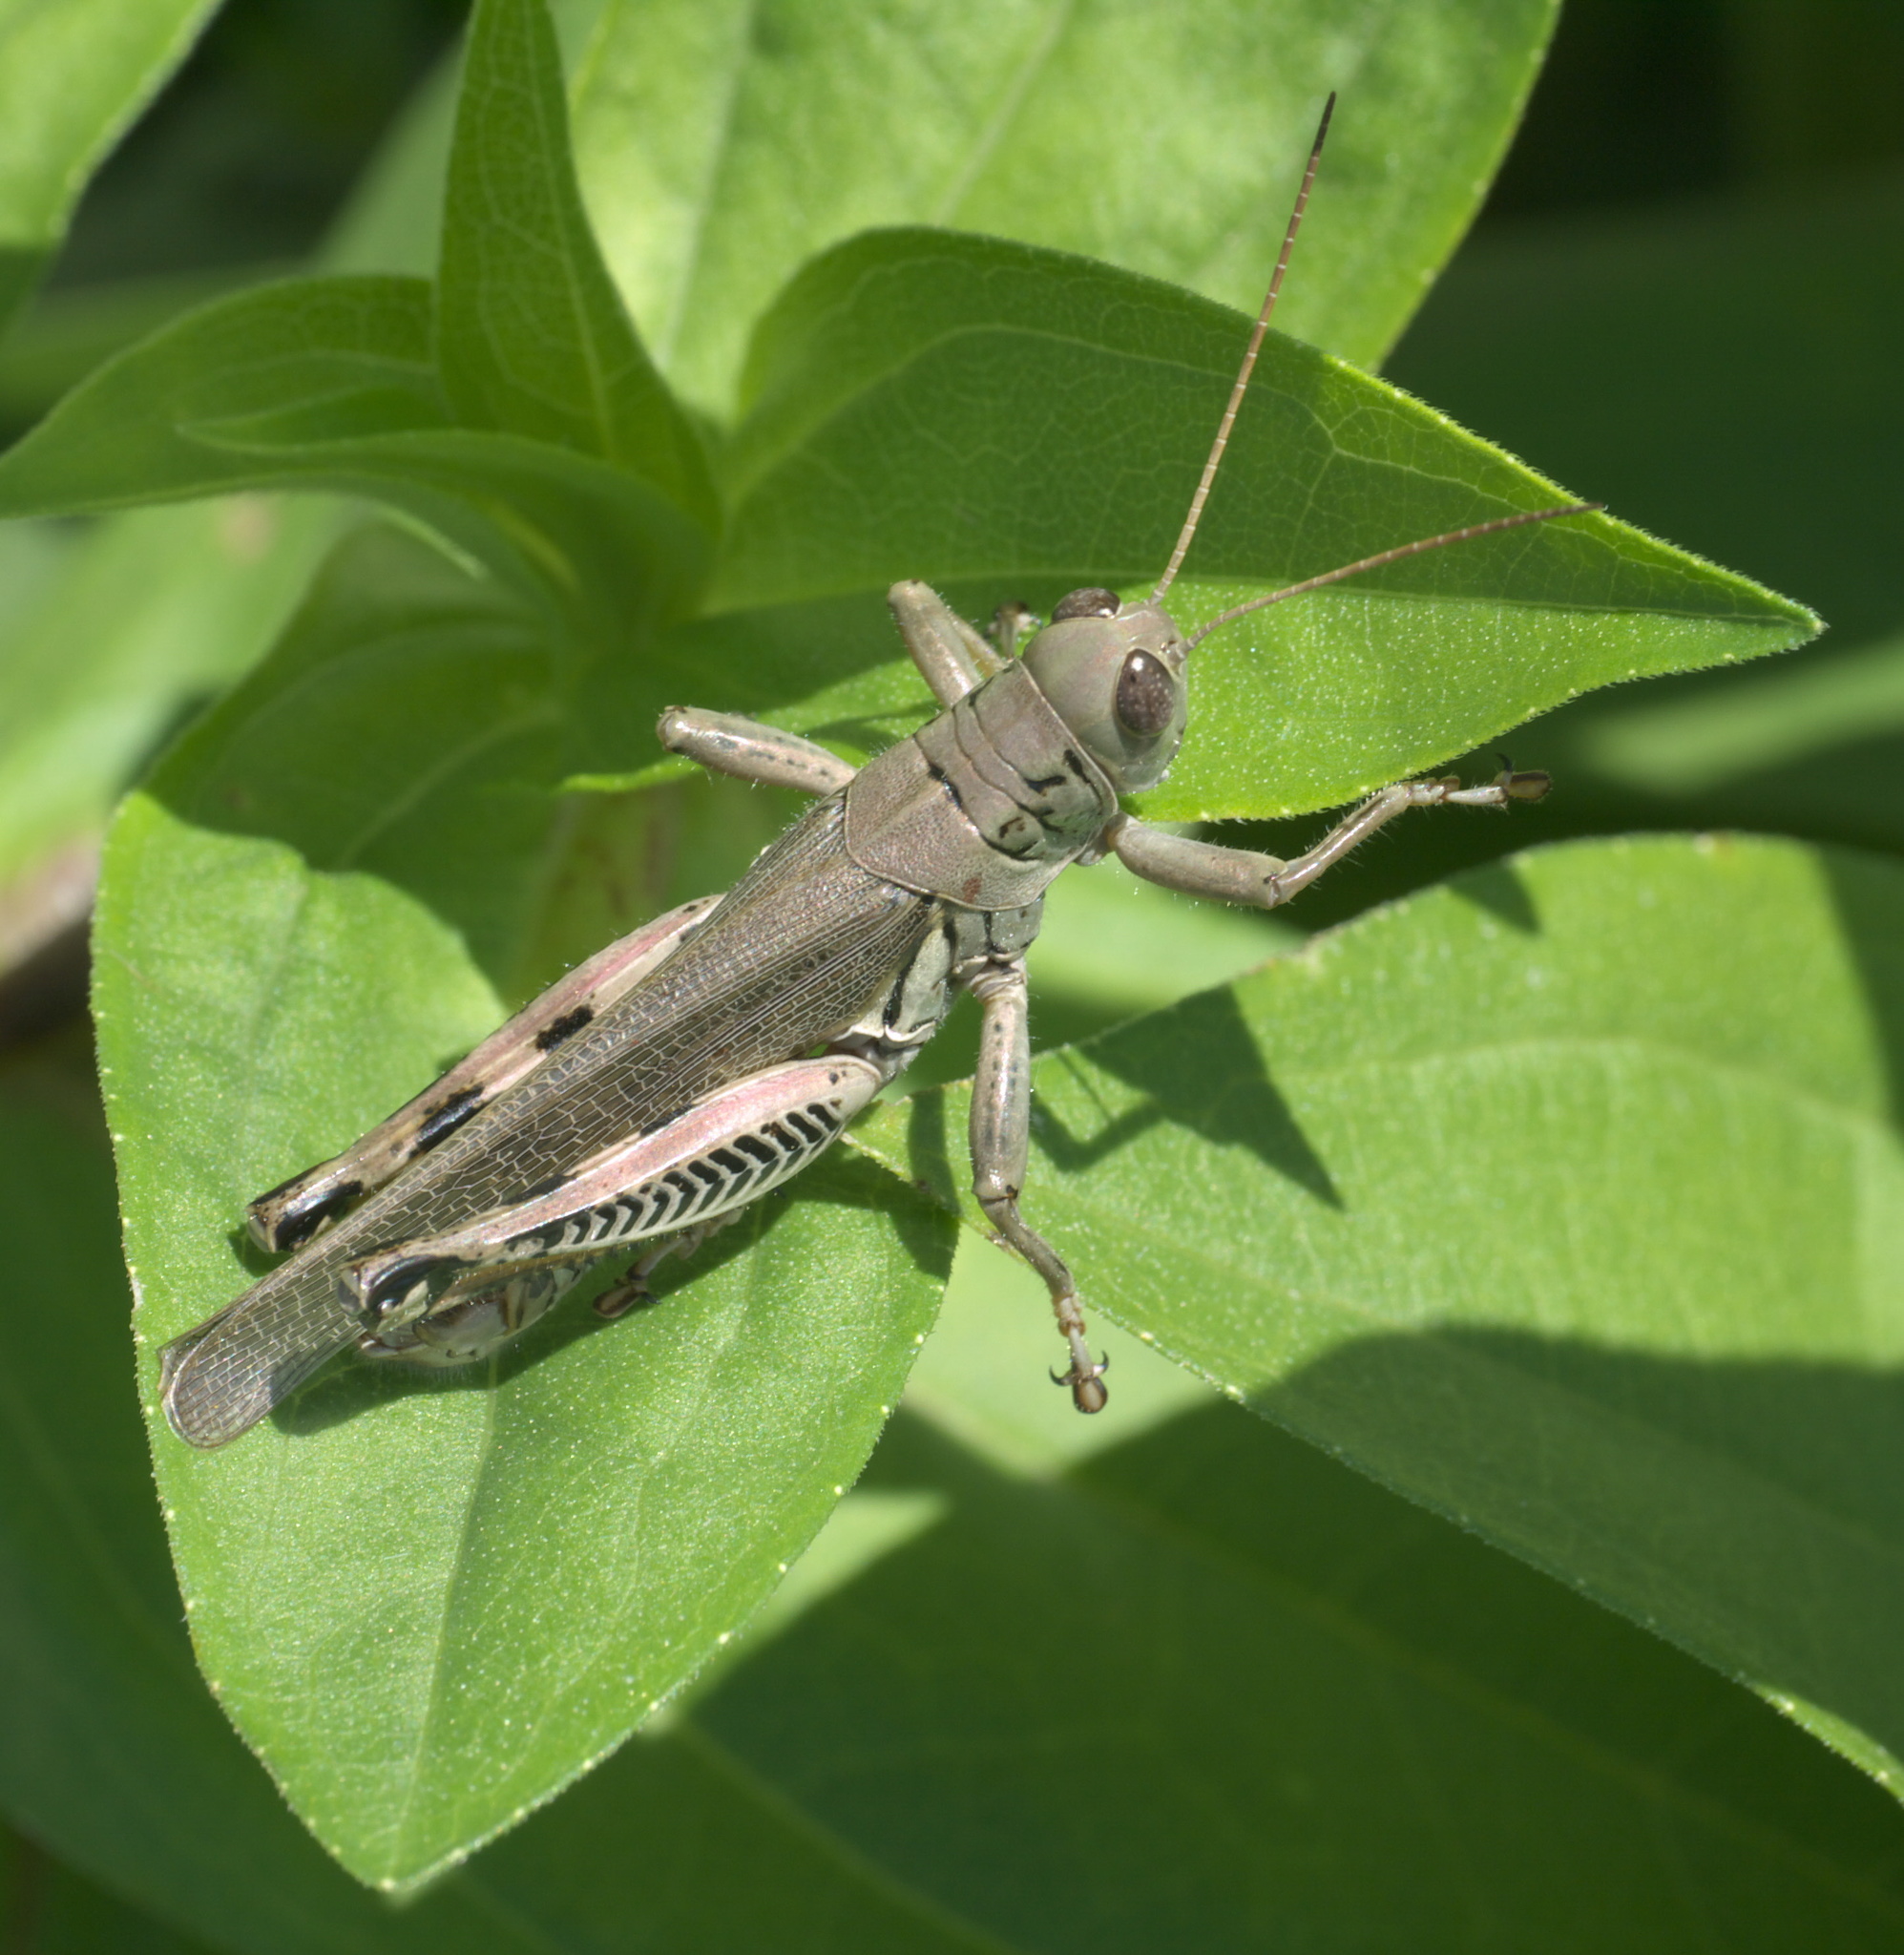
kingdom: Animalia
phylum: Arthropoda
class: Insecta
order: Orthoptera
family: Acrididae
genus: Melanoplus
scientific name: Melanoplus differentialis
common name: Differential grasshopper
